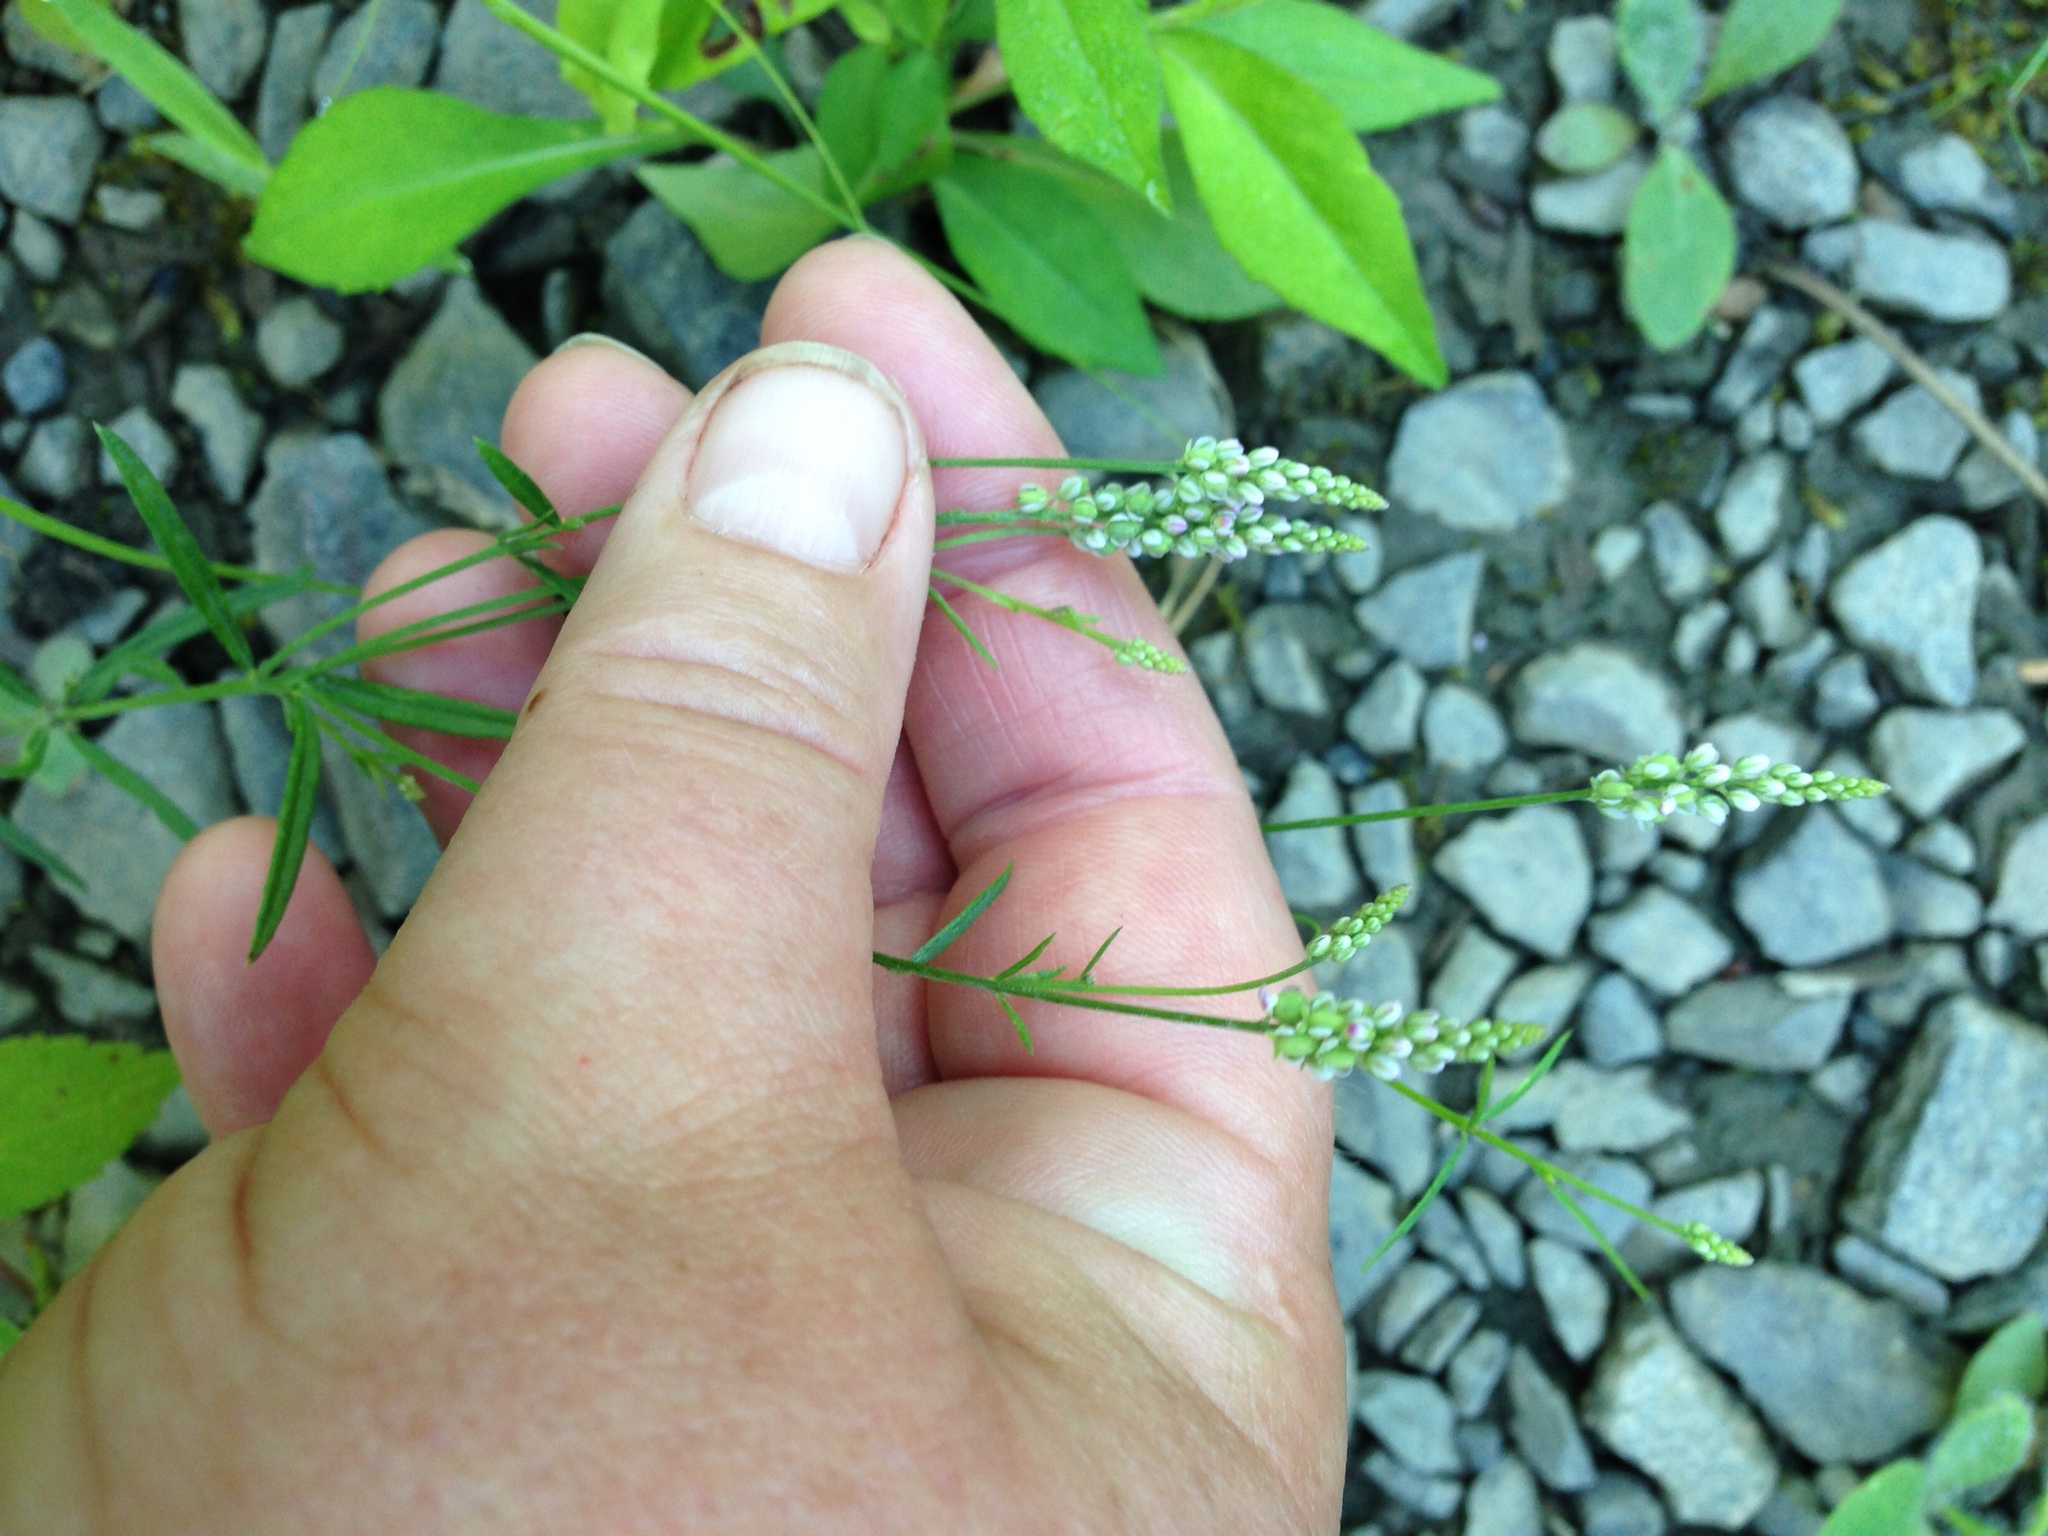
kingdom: Plantae
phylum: Tracheophyta
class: Magnoliopsida
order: Fabales
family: Polygalaceae
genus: Polygala
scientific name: Polygala verticillata
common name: Whorl milkwort
